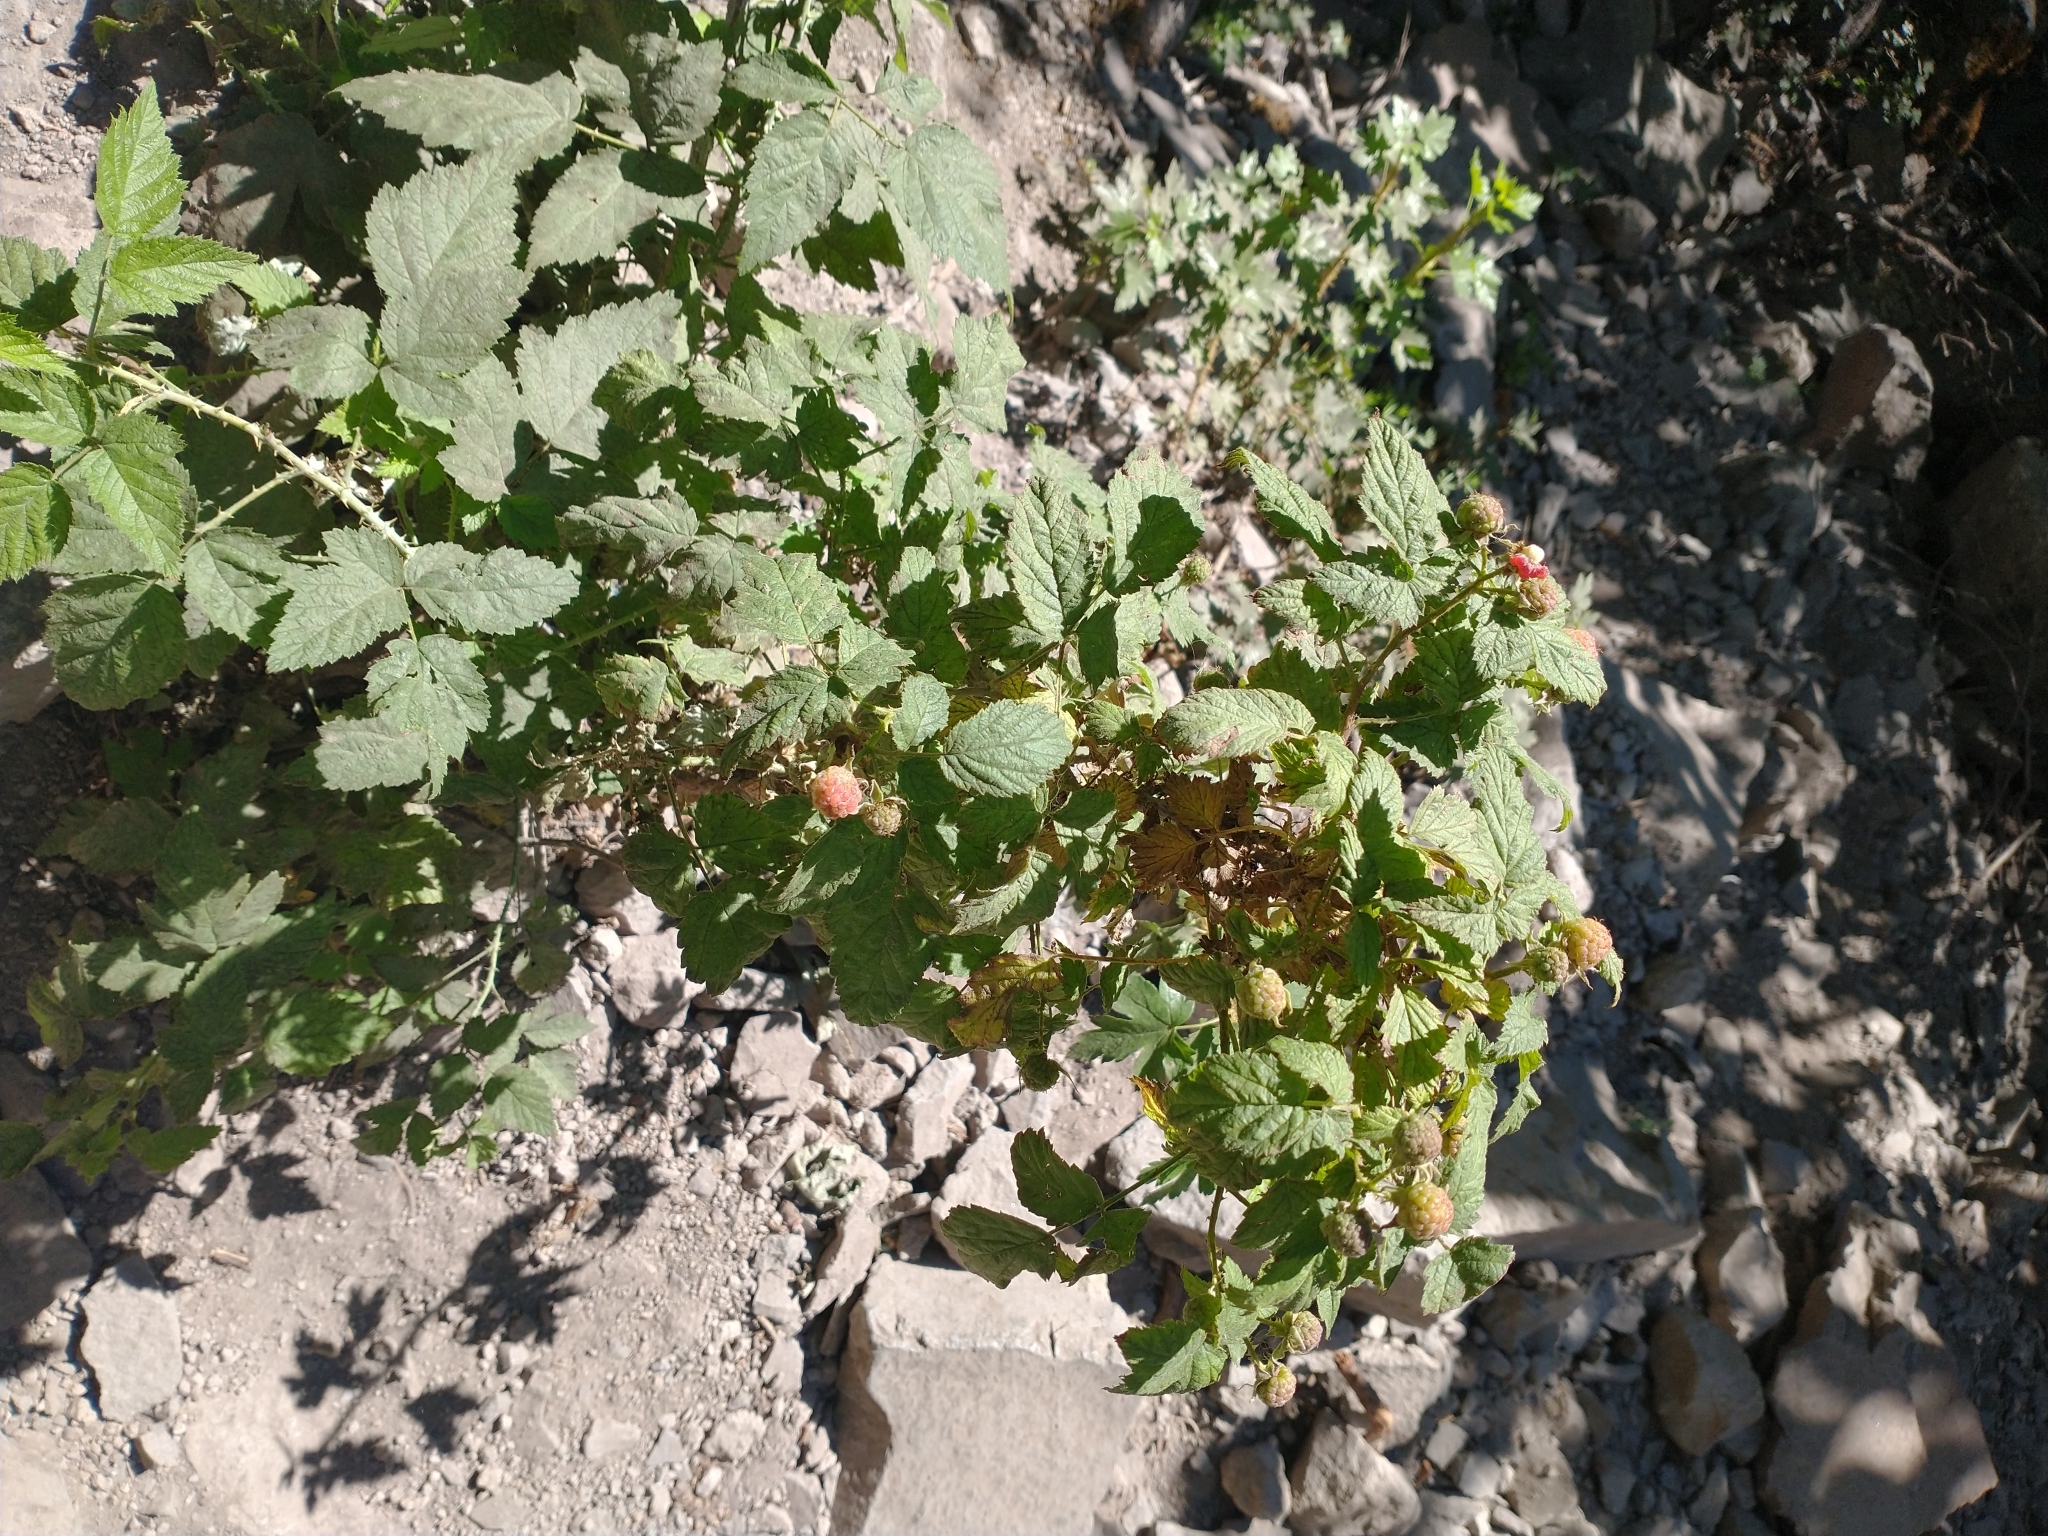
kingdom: Plantae
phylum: Tracheophyta
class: Magnoliopsida
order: Rosales
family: Rosaceae
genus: Rubus
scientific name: Rubus leucodermis
